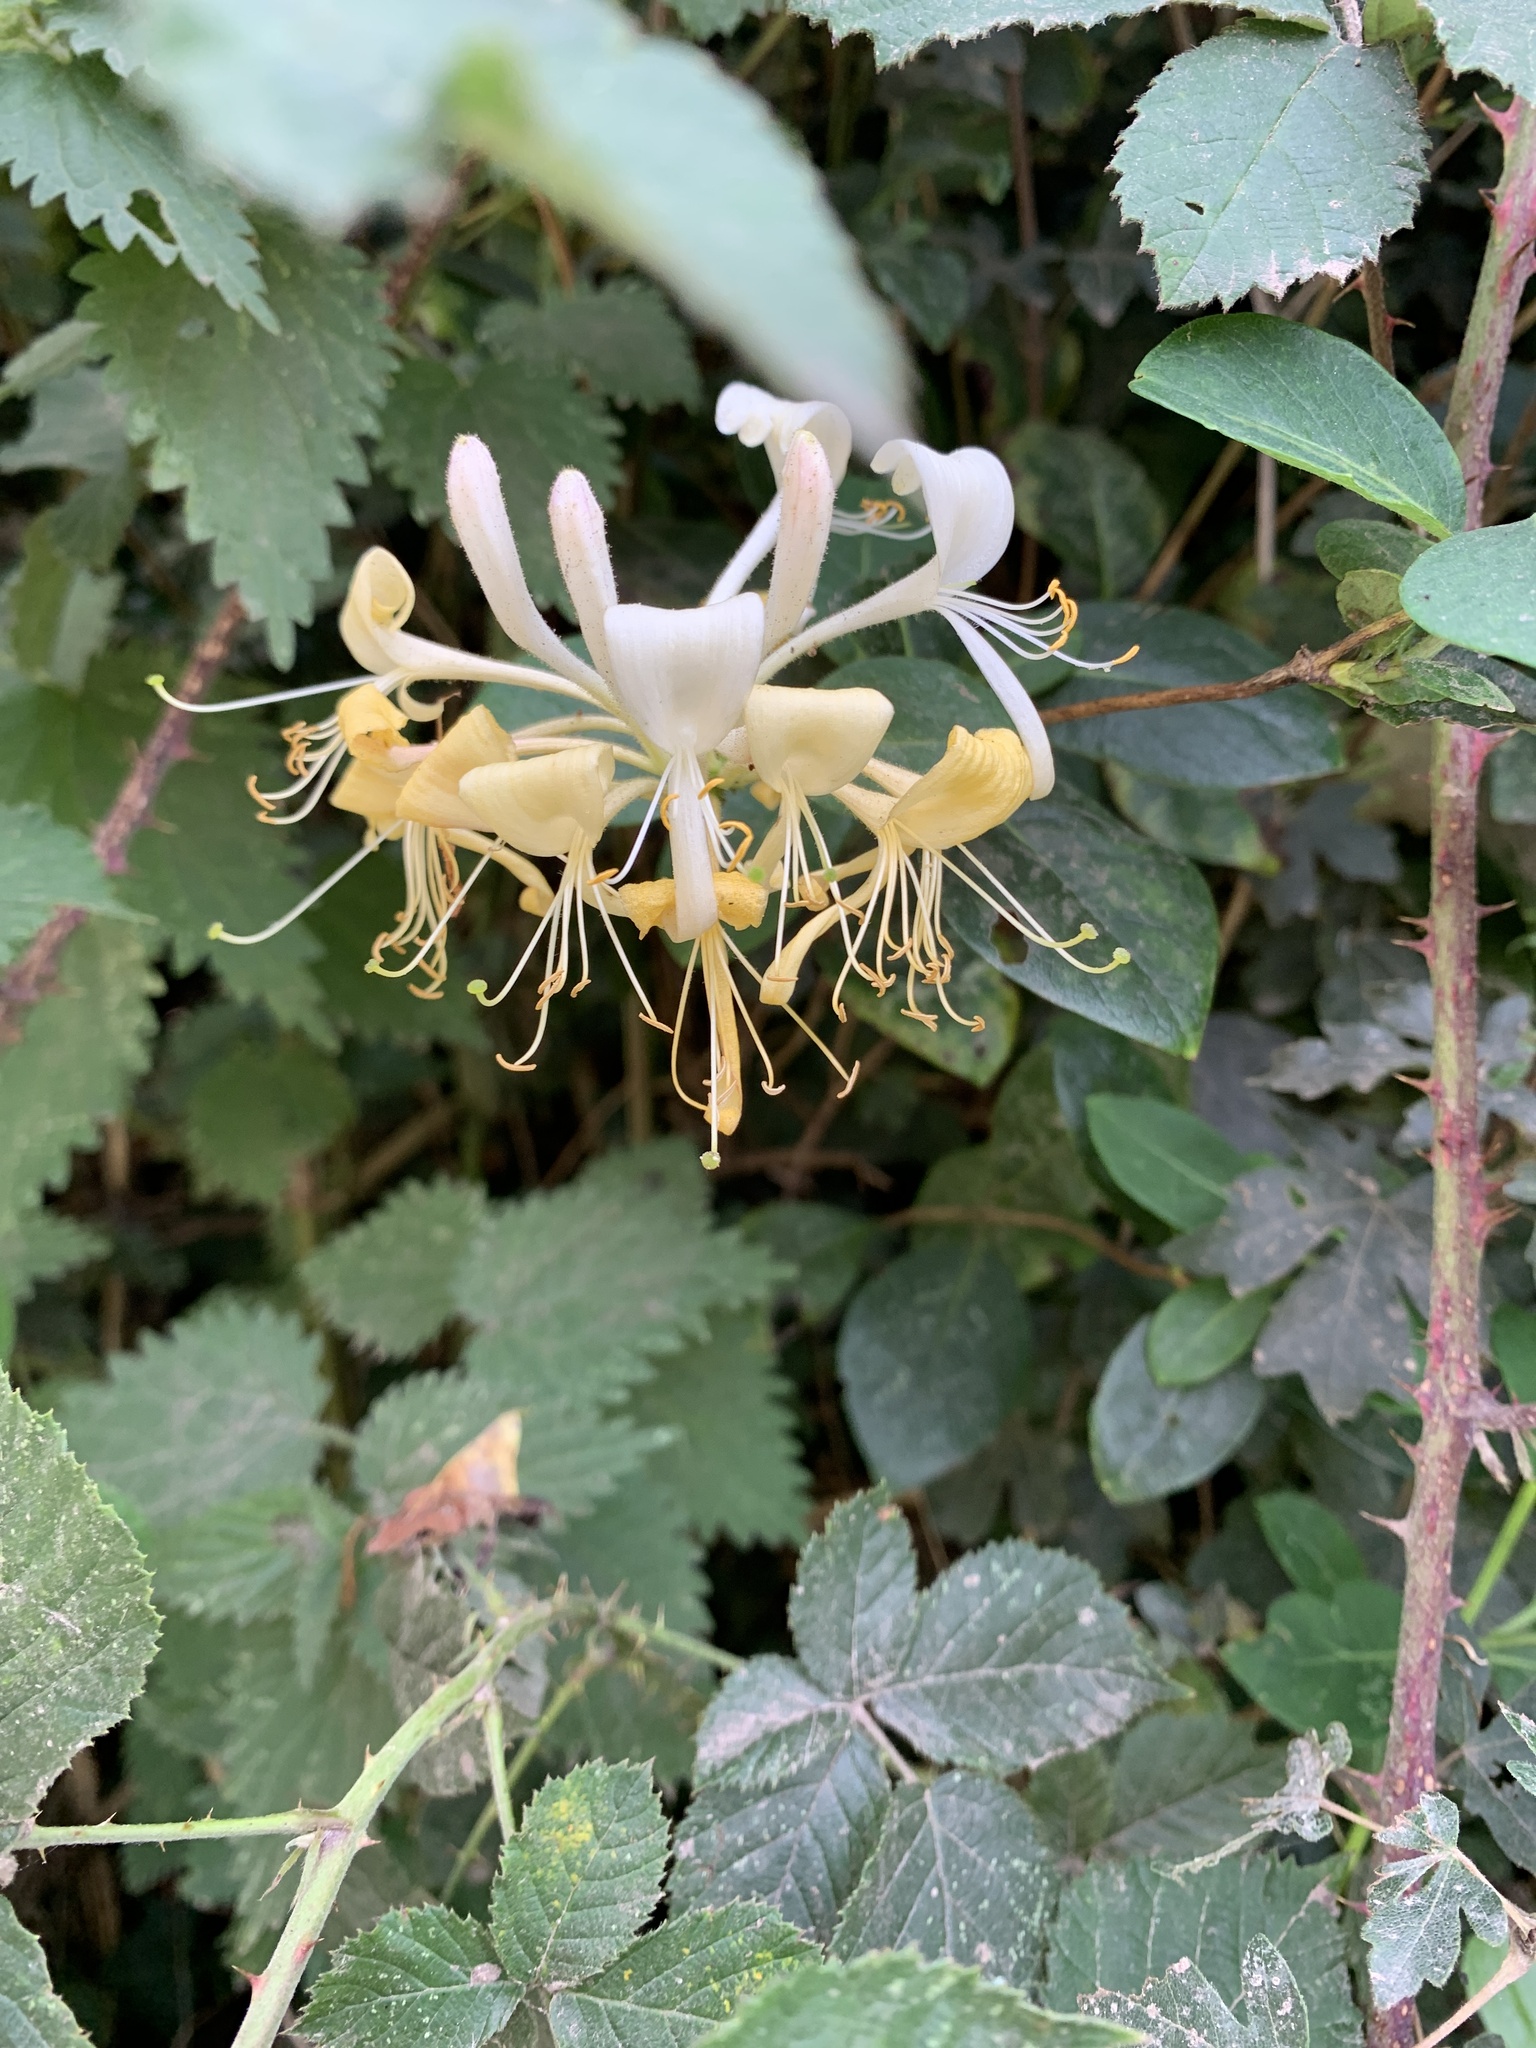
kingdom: Plantae
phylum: Tracheophyta
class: Magnoliopsida
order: Dipsacales
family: Caprifoliaceae
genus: Lonicera
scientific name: Lonicera periclymenum
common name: European honeysuckle
